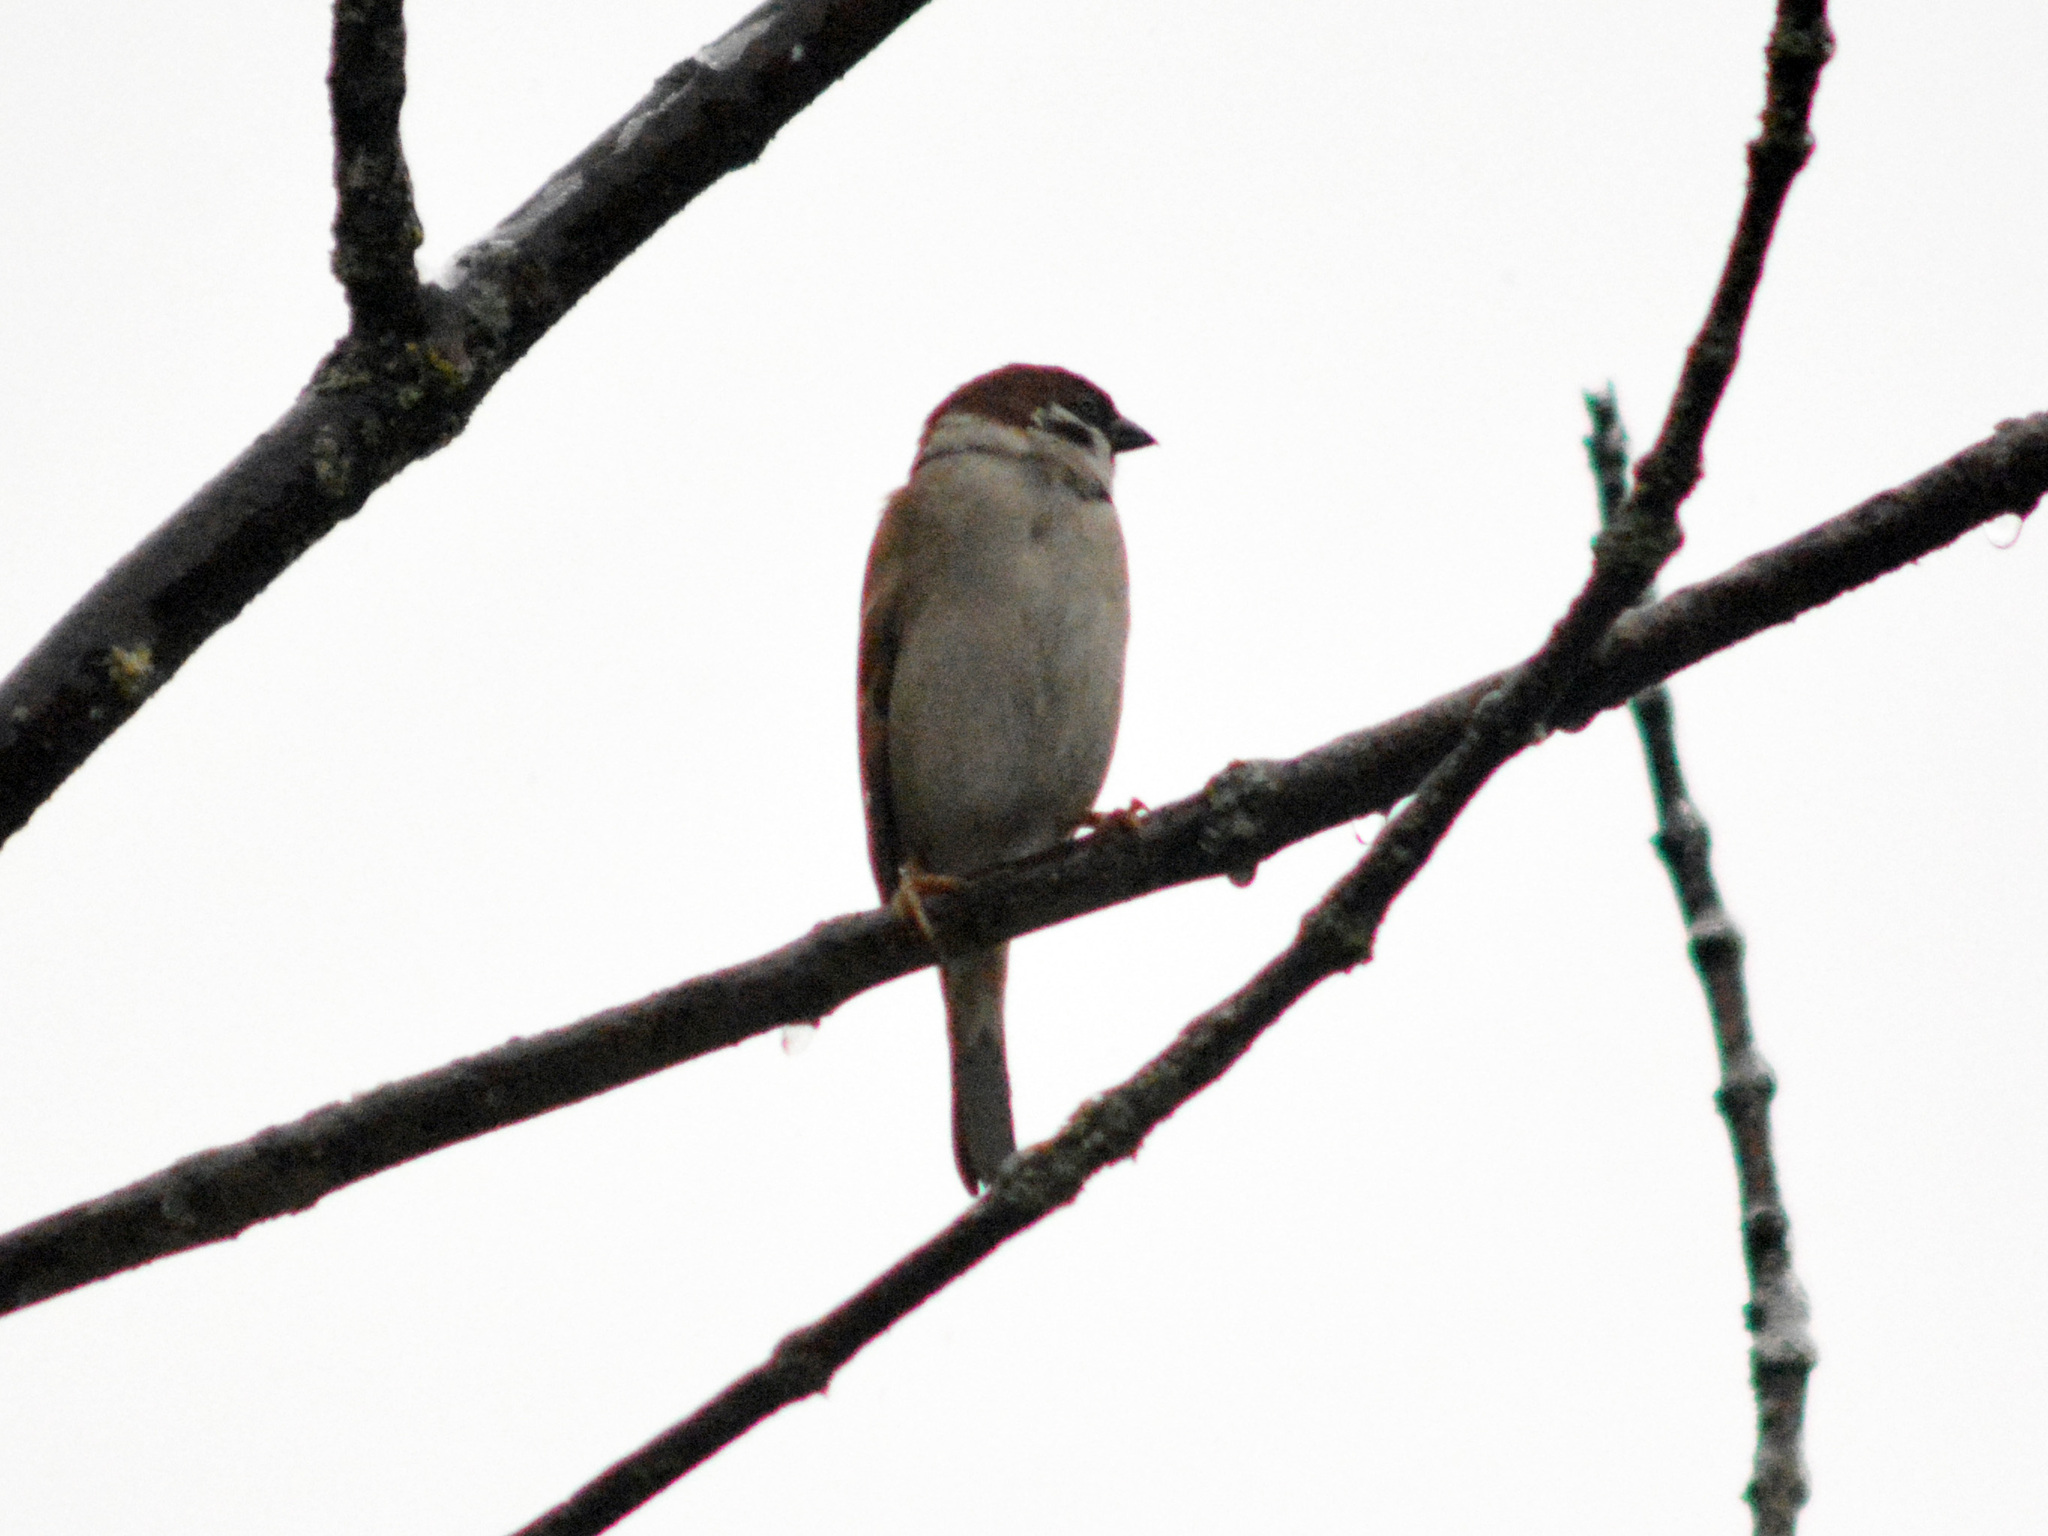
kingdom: Animalia
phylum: Chordata
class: Aves
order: Passeriformes
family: Passeridae
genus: Passer
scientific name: Passer montanus
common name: Eurasian tree sparrow
